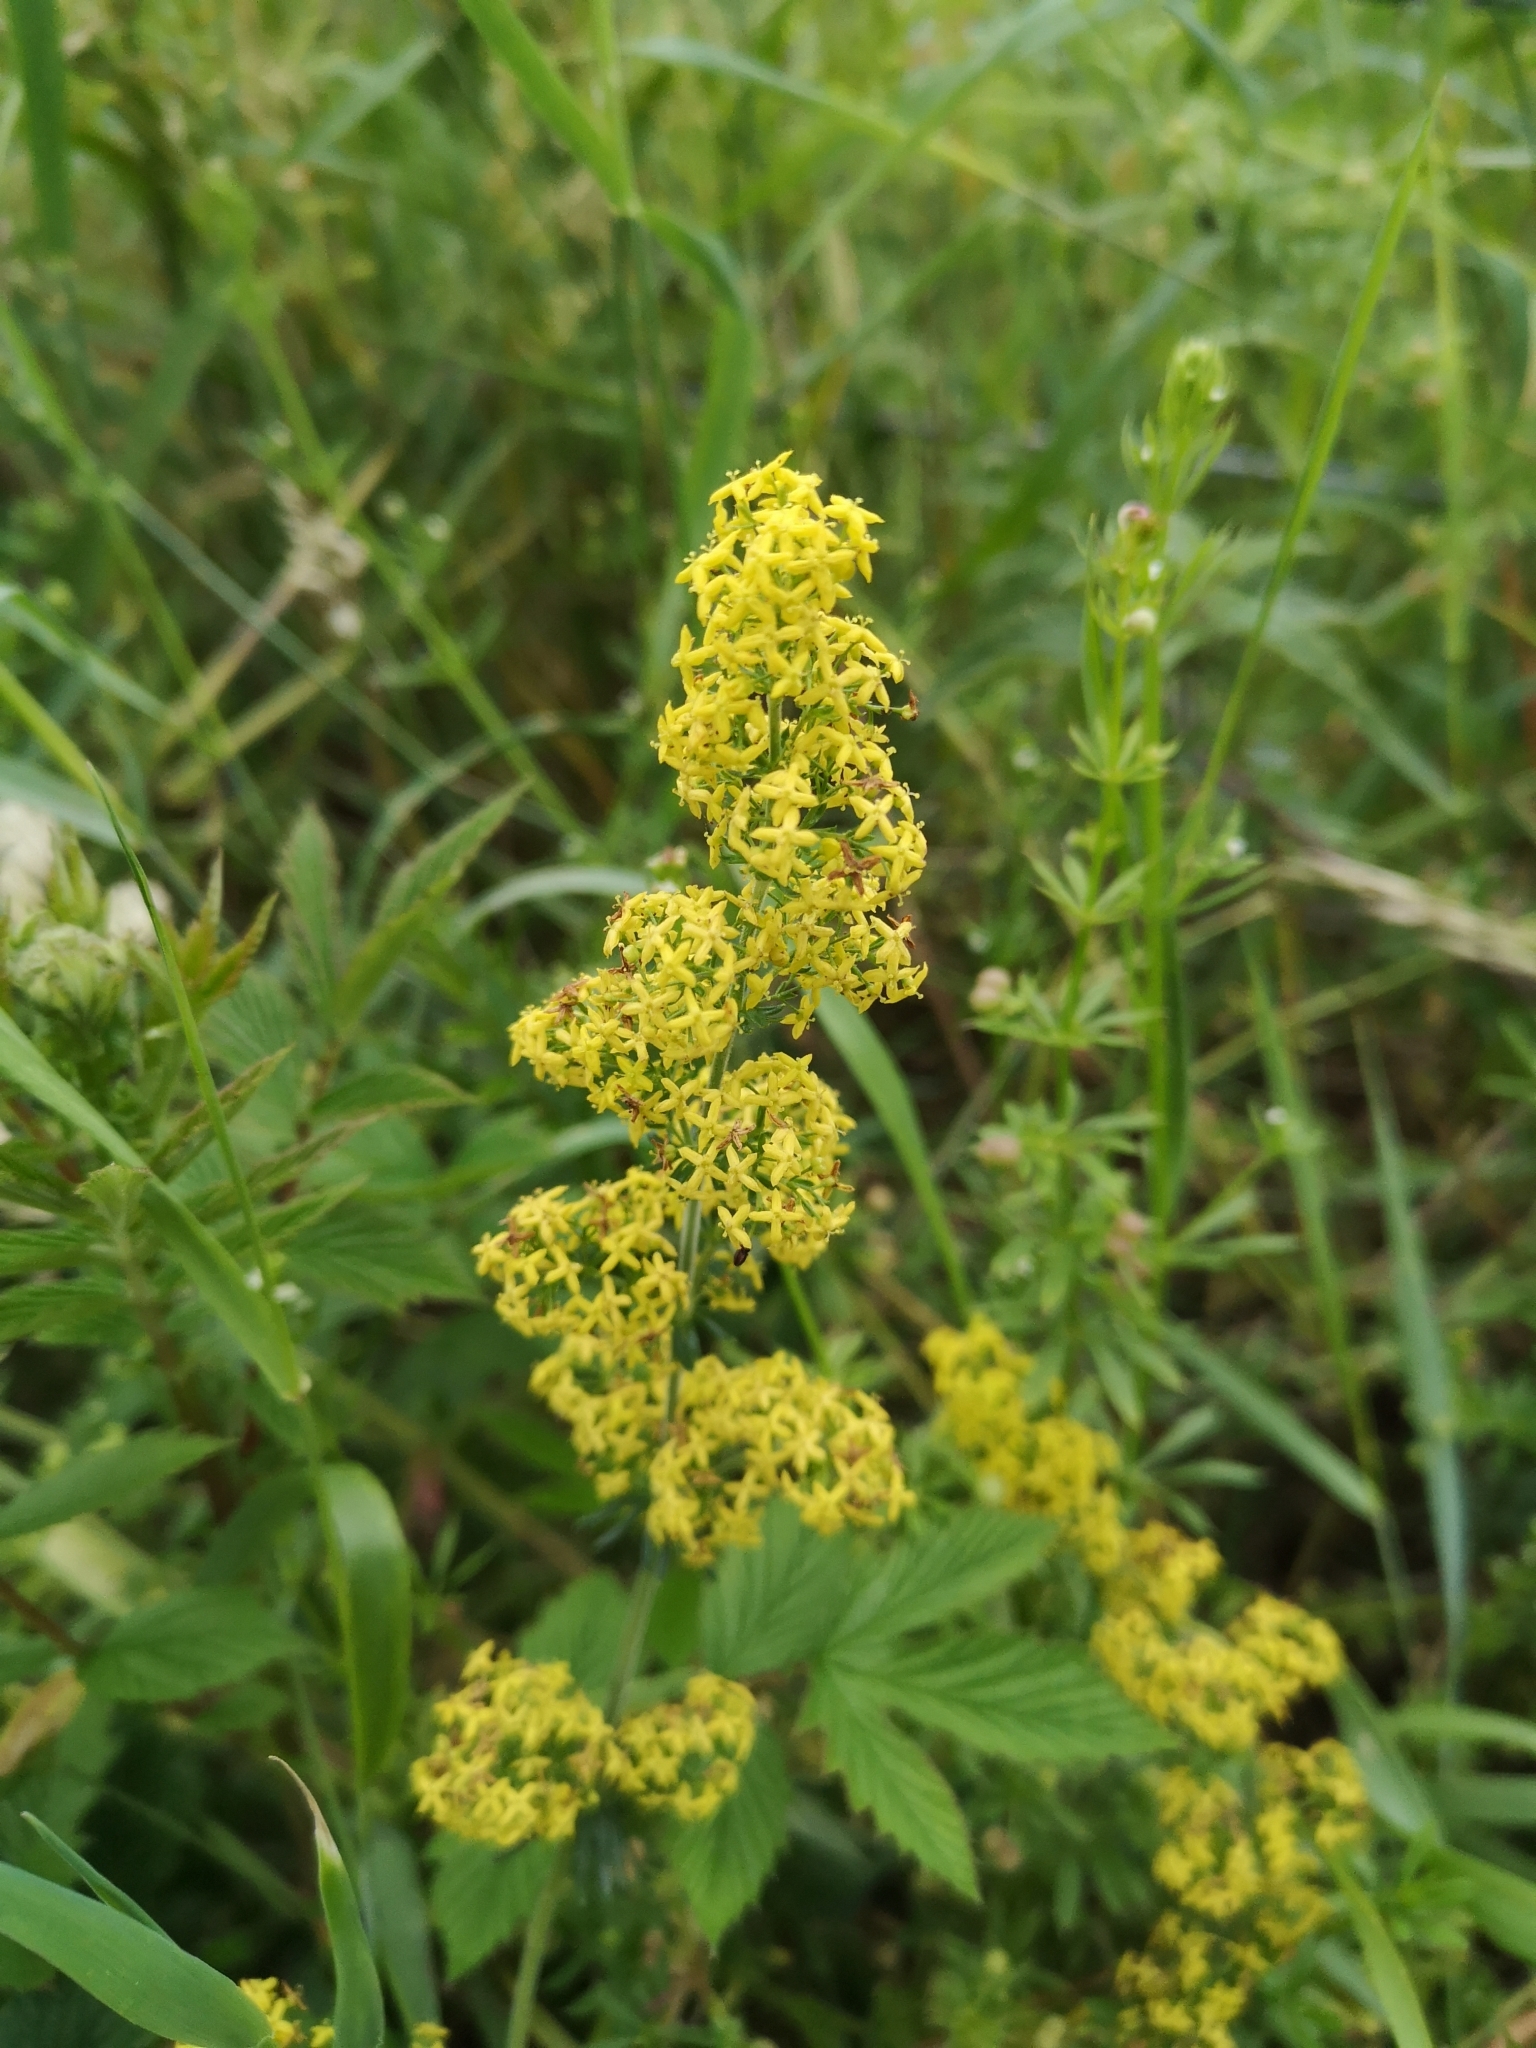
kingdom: Plantae
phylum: Tracheophyta
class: Magnoliopsida
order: Gentianales
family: Rubiaceae
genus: Galium
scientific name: Galium verum
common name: Lady's bedstraw
